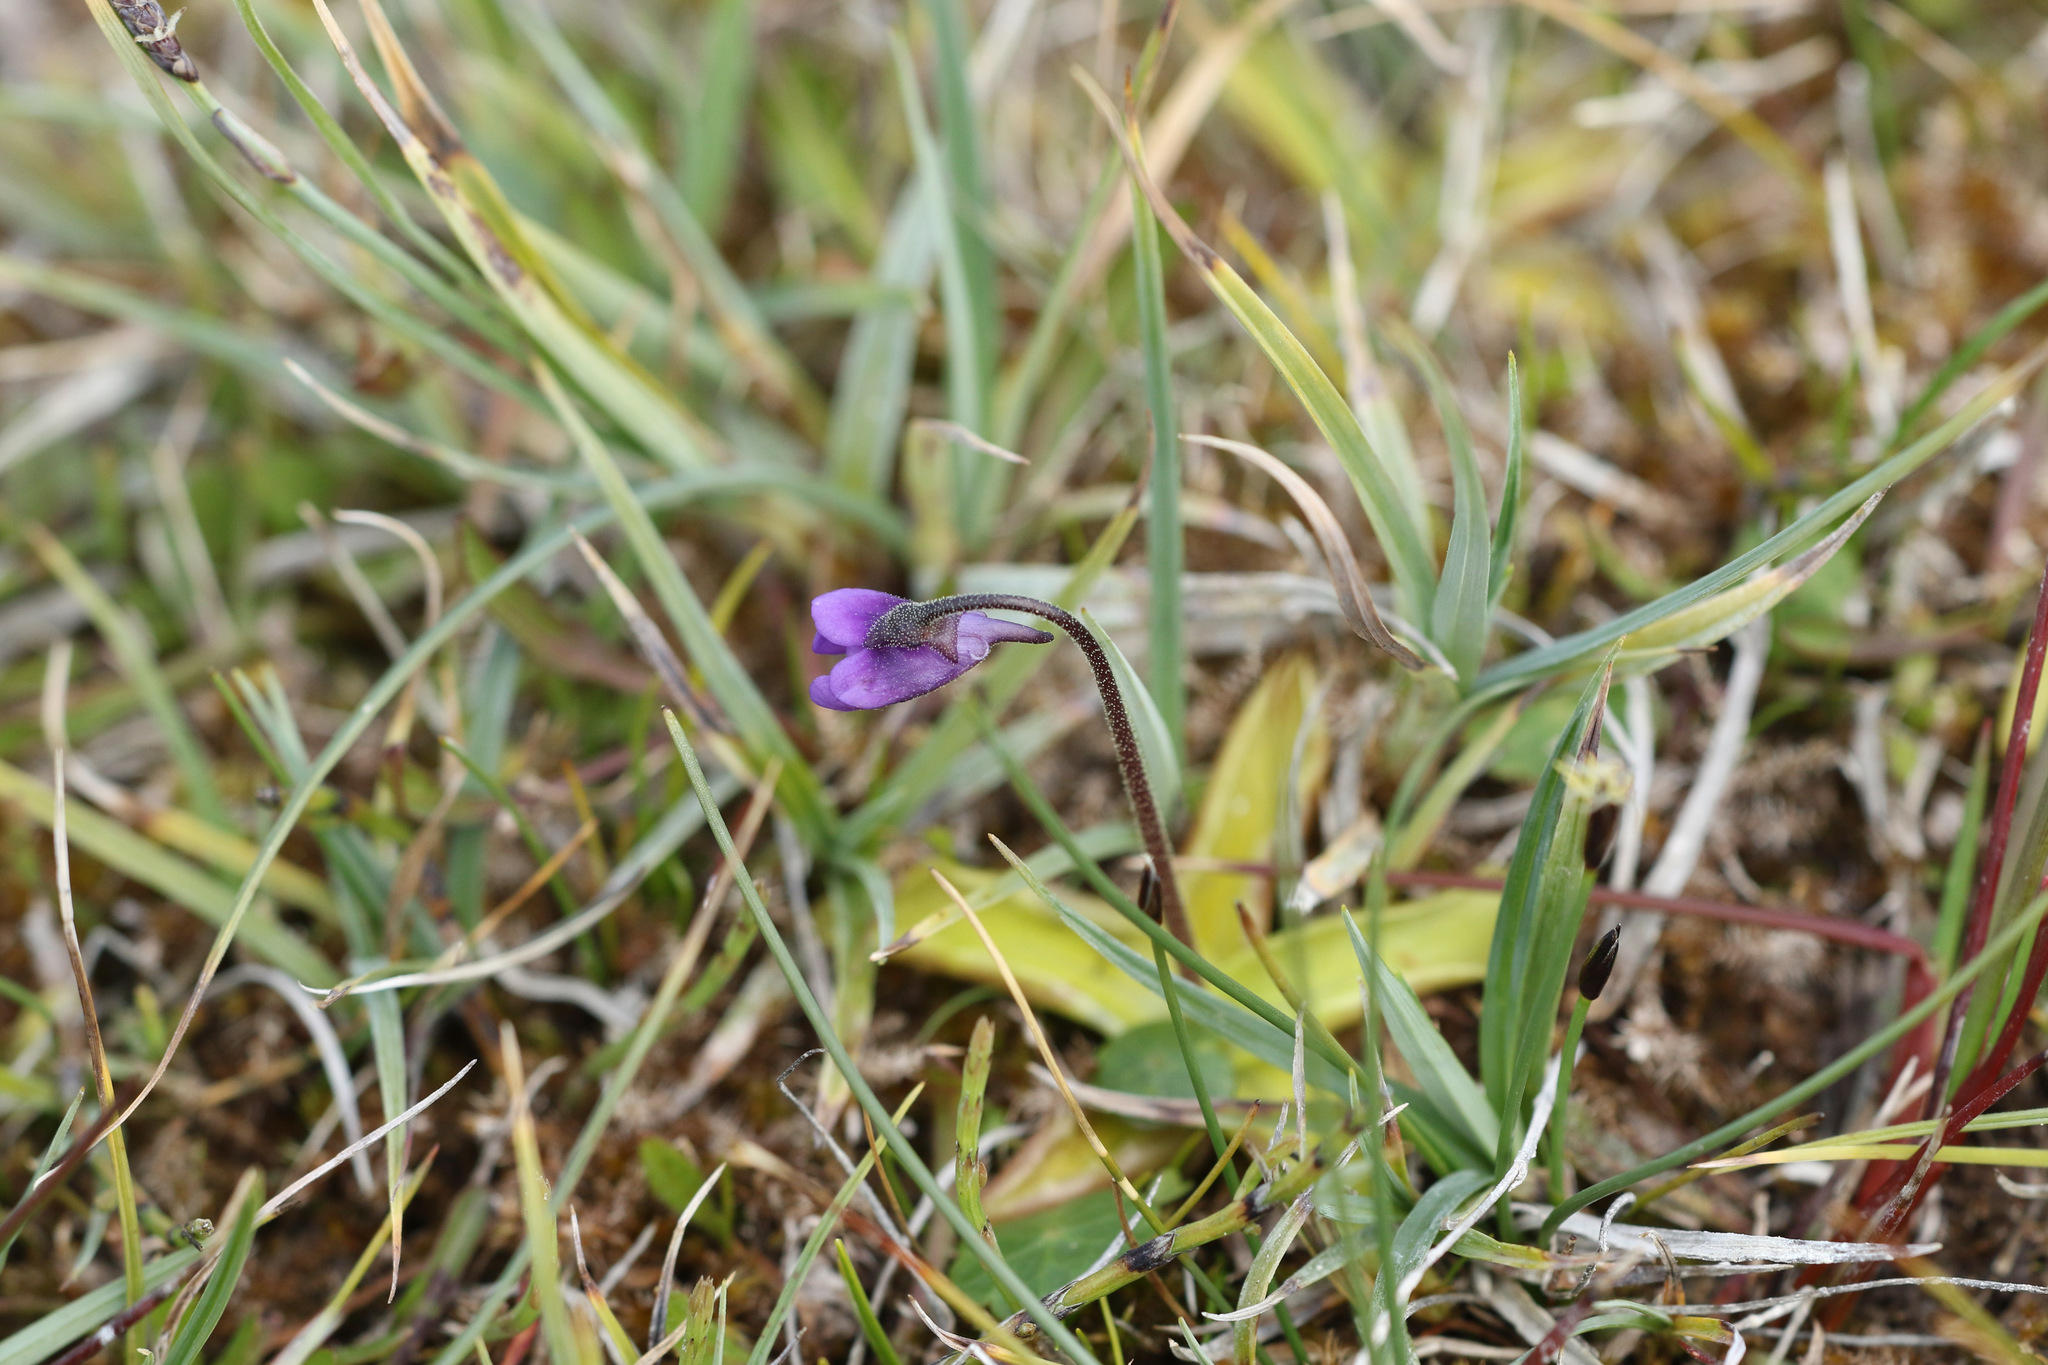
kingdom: Plantae
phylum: Tracheophyta
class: Magnoliopsida
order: Lamiales
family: Lentibulariaceae
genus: Pinguicula
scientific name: Pinguicula vulgaris
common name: Common butterwort
